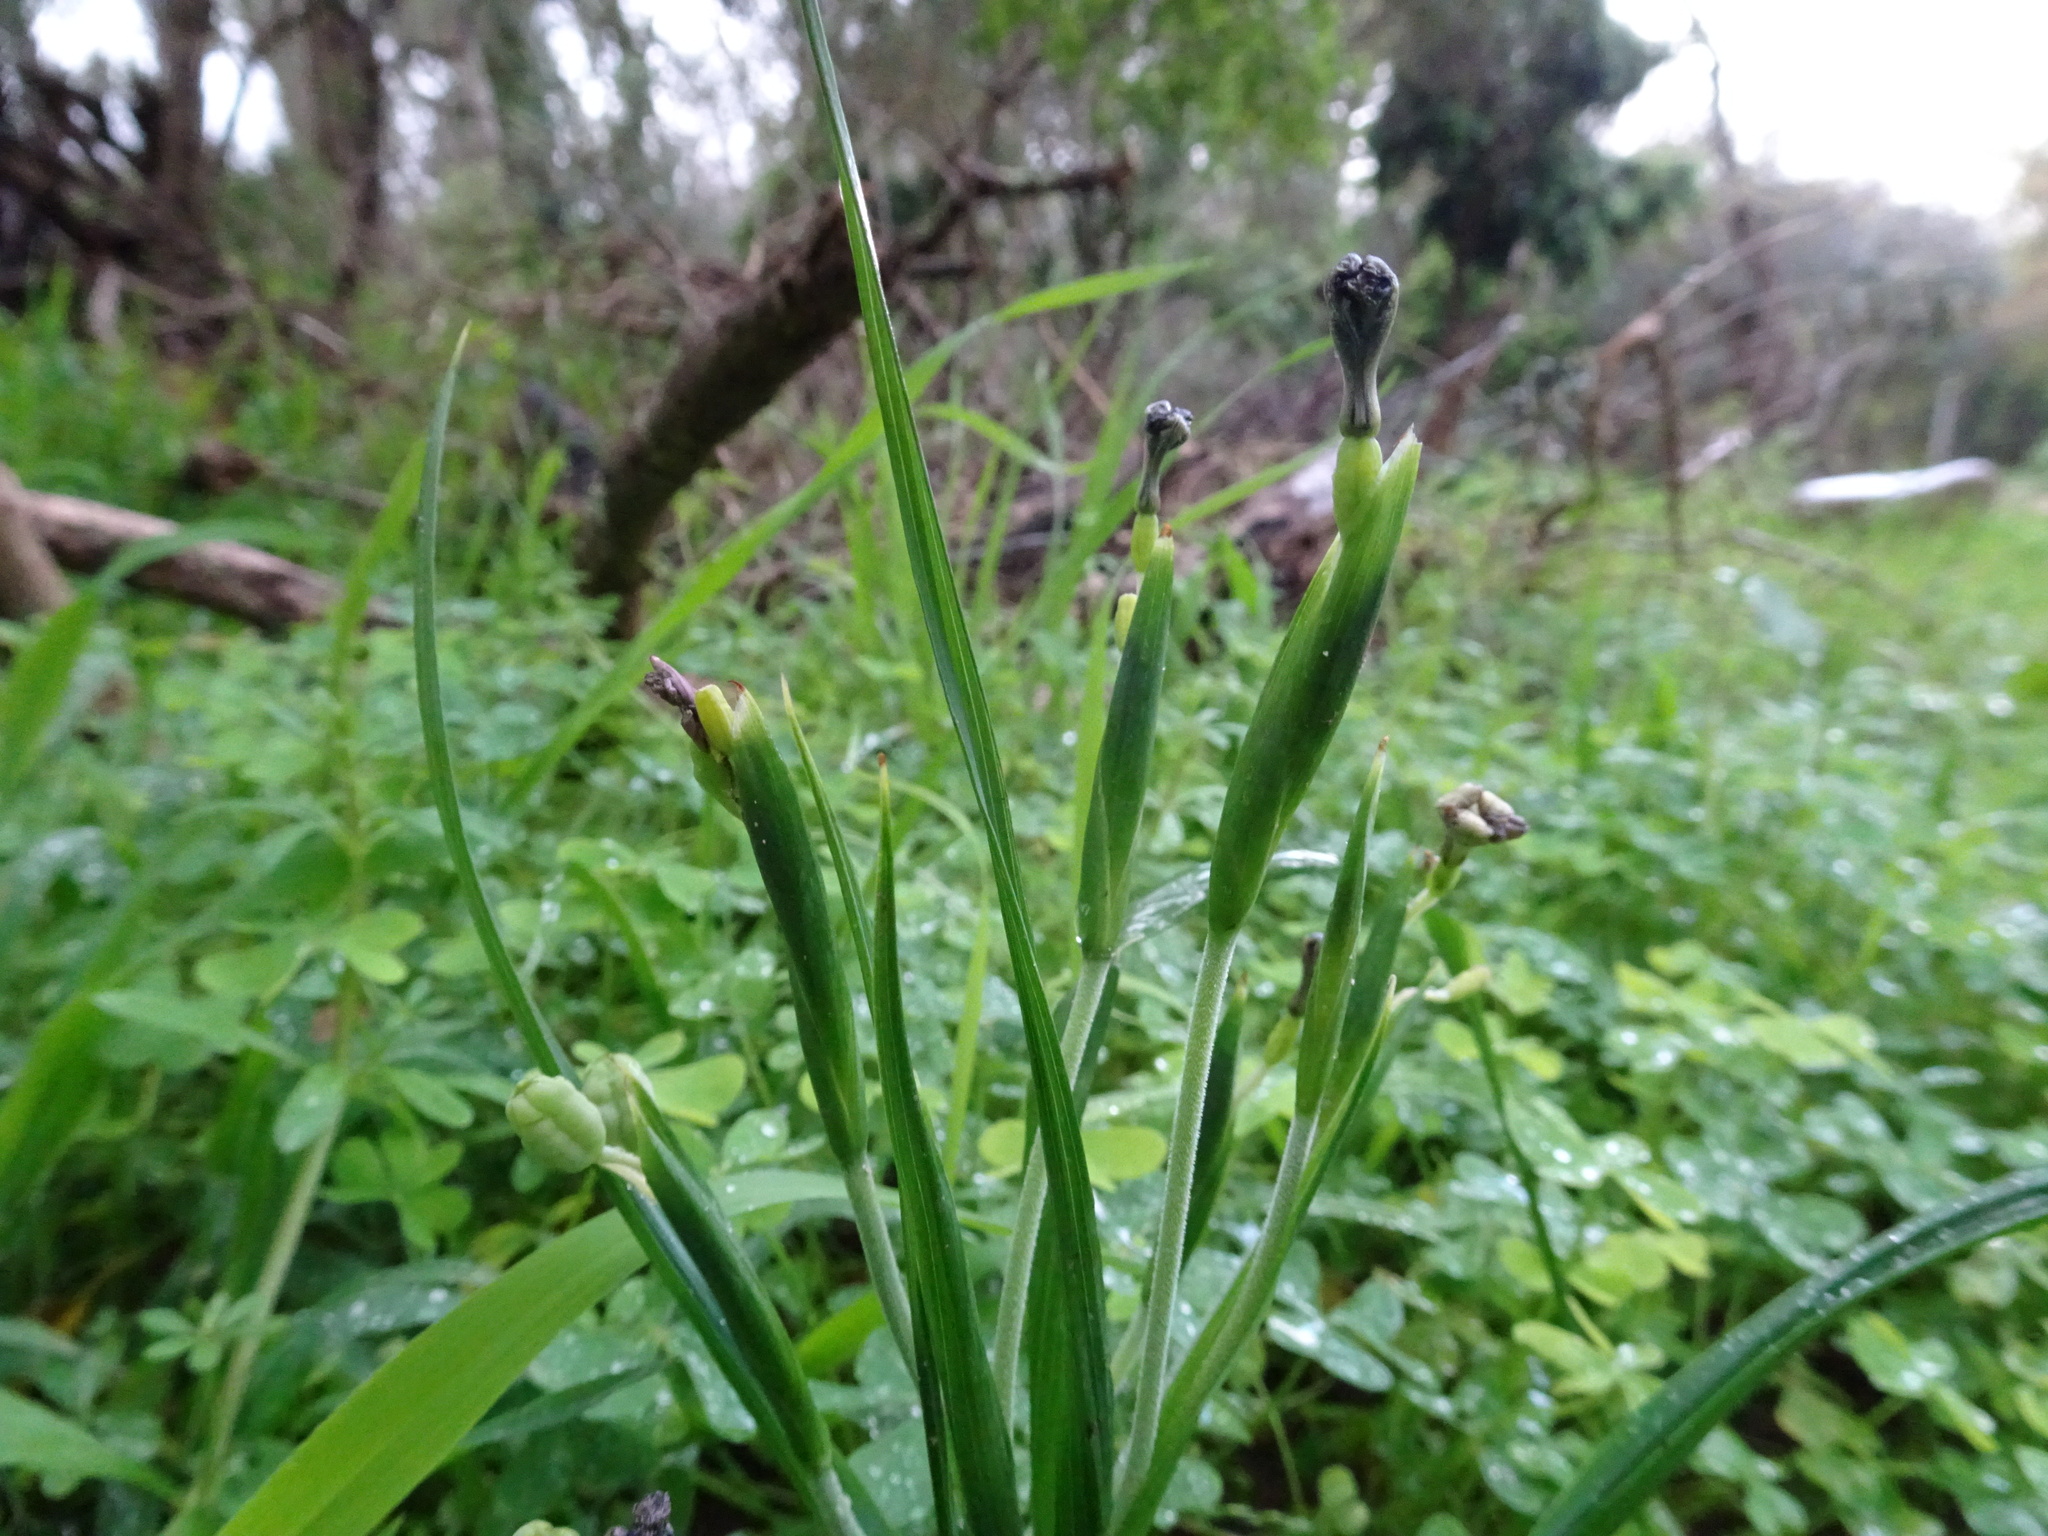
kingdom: Plantae
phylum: Tracheophyta
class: Liliopsida
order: Asparagales
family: Iridaceae
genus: Moraea
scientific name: Moraea vegeta
